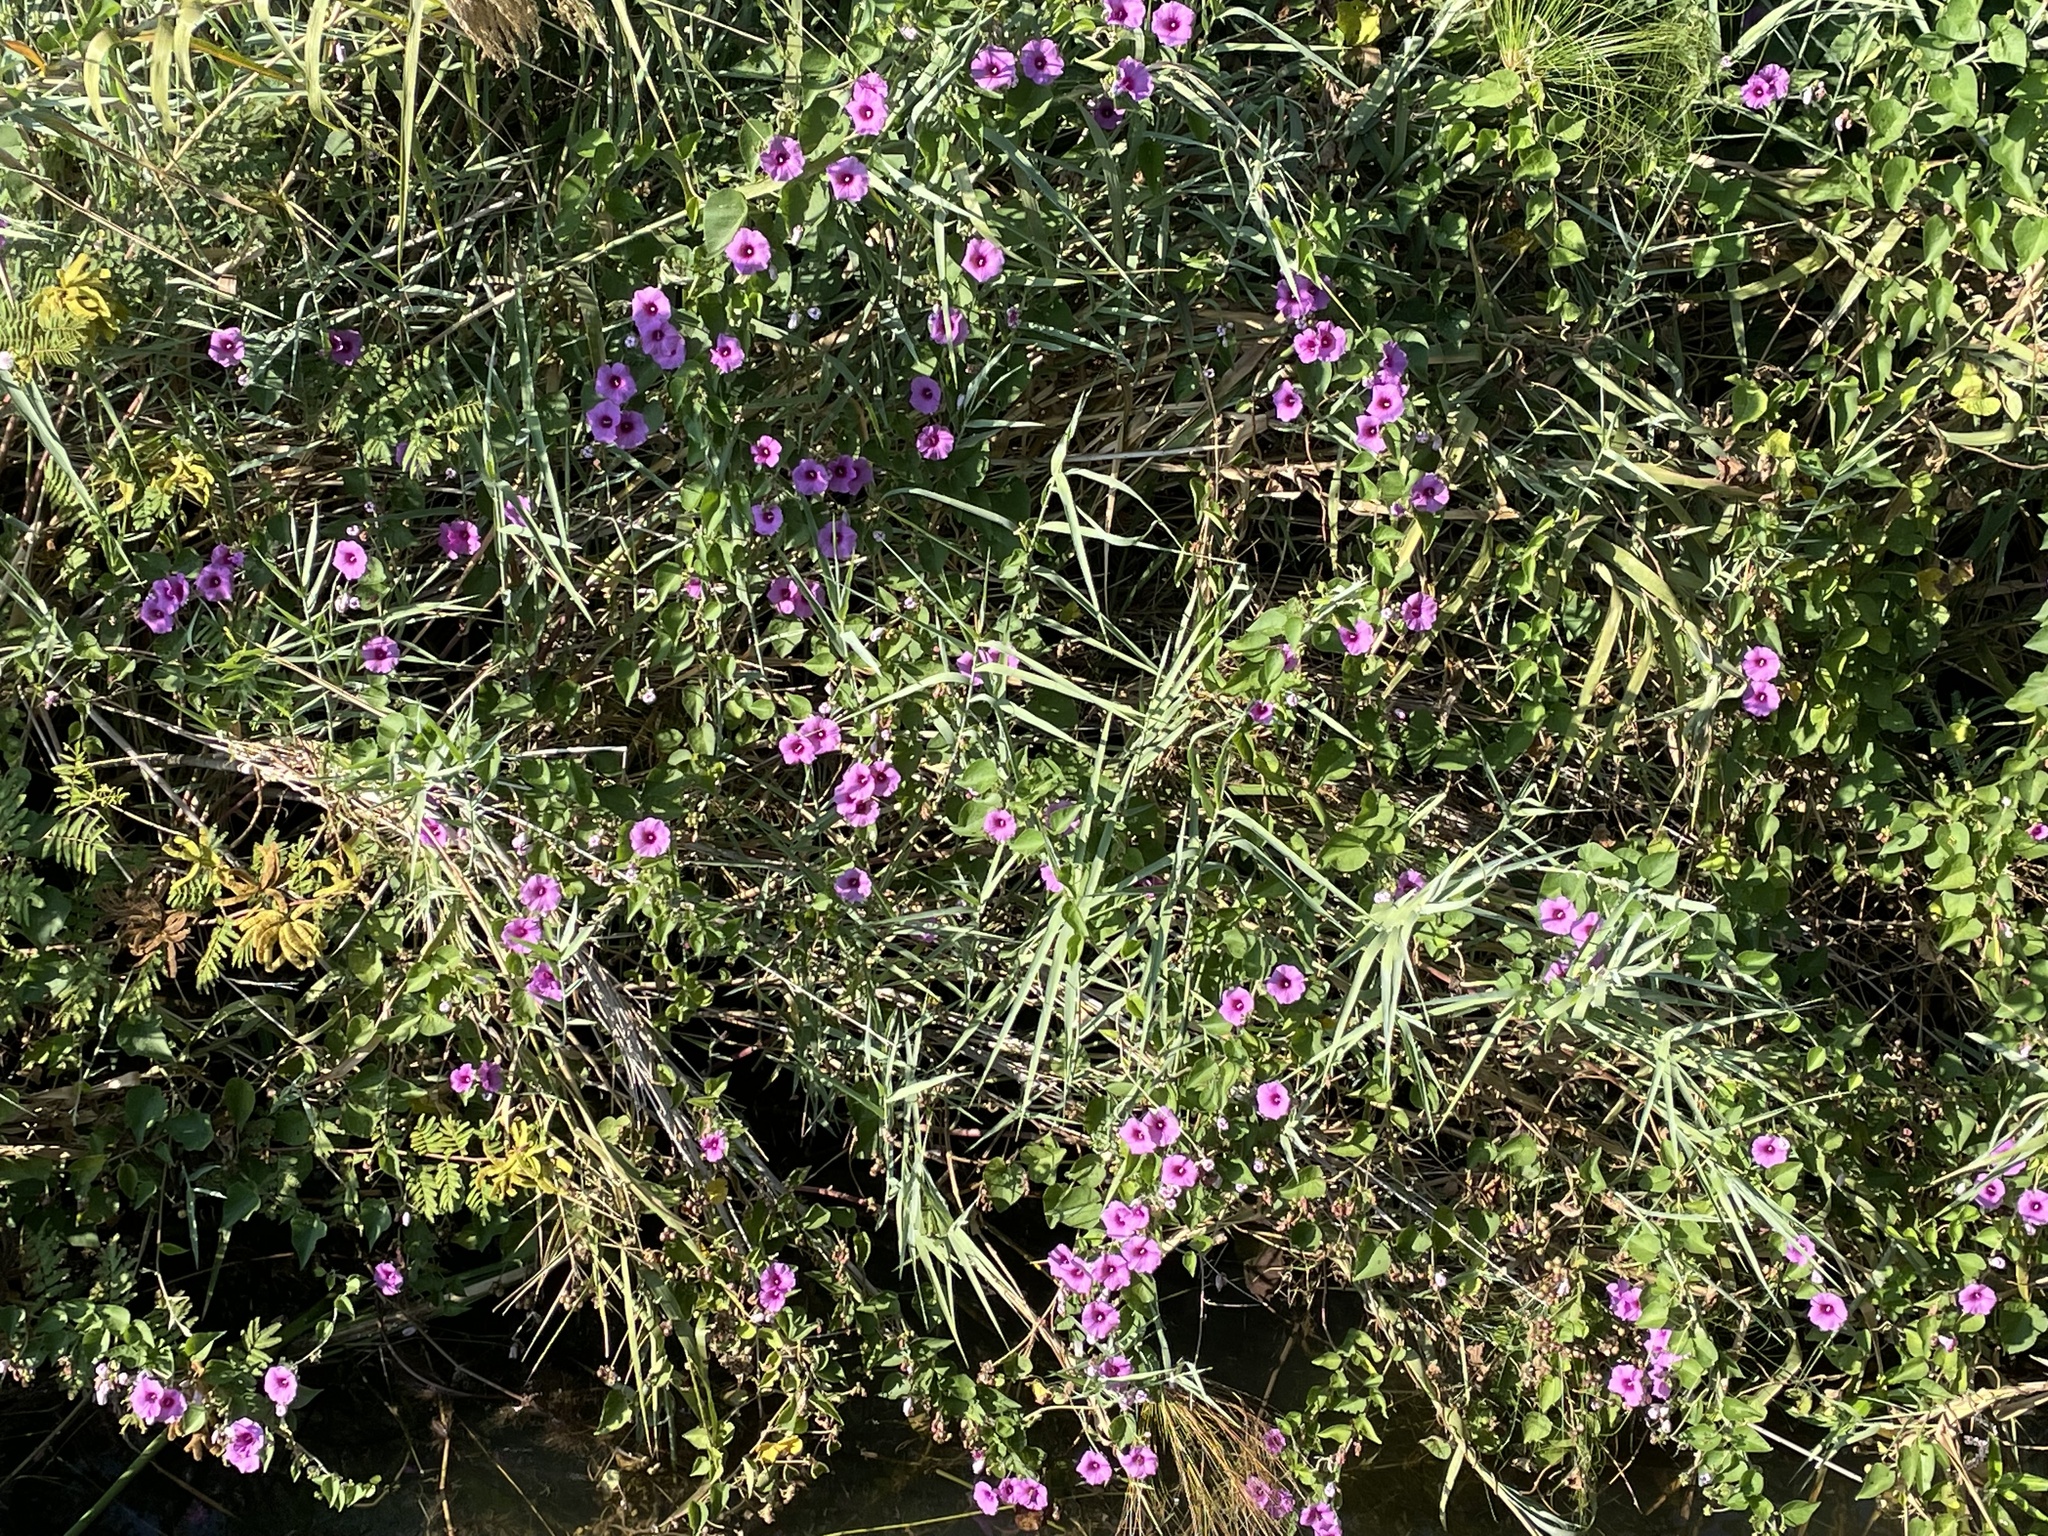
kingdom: Plantae
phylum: Tracheophyta
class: Magnoliopsida
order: Solanales
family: Convolvulaceae
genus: Ipomoea
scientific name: Ipomoea rubens
